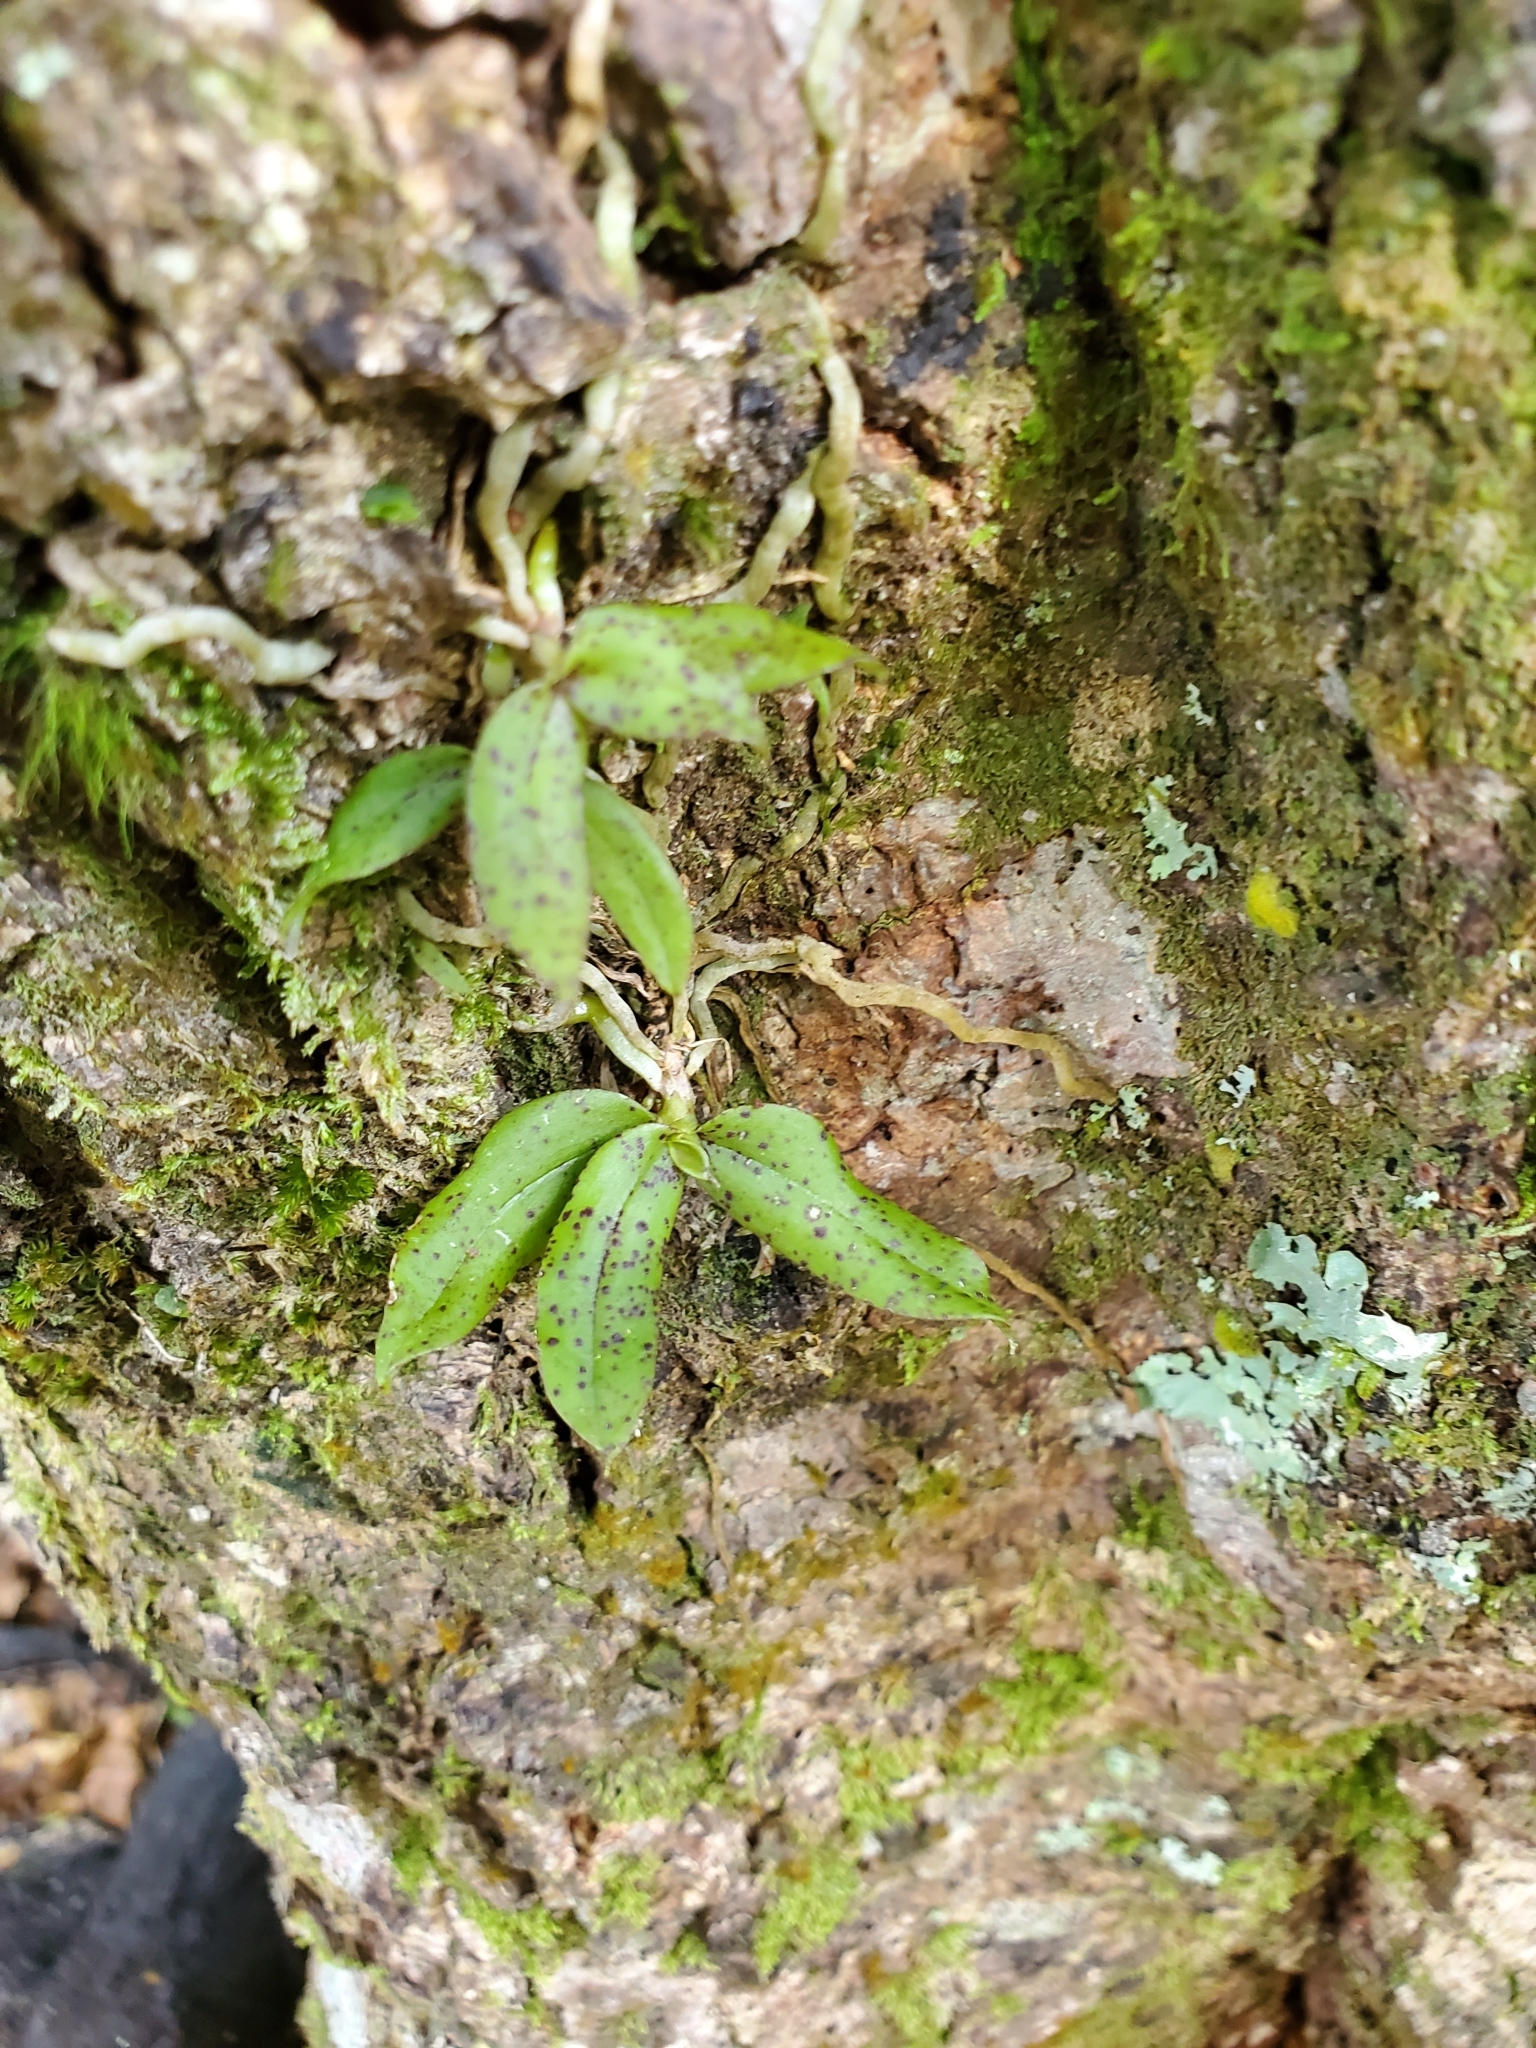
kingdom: Plantae
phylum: Tracheophyta
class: Liliopsida
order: Asparagales
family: Orchidaceae
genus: Drymoanthus
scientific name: Drymoanthus flavus
